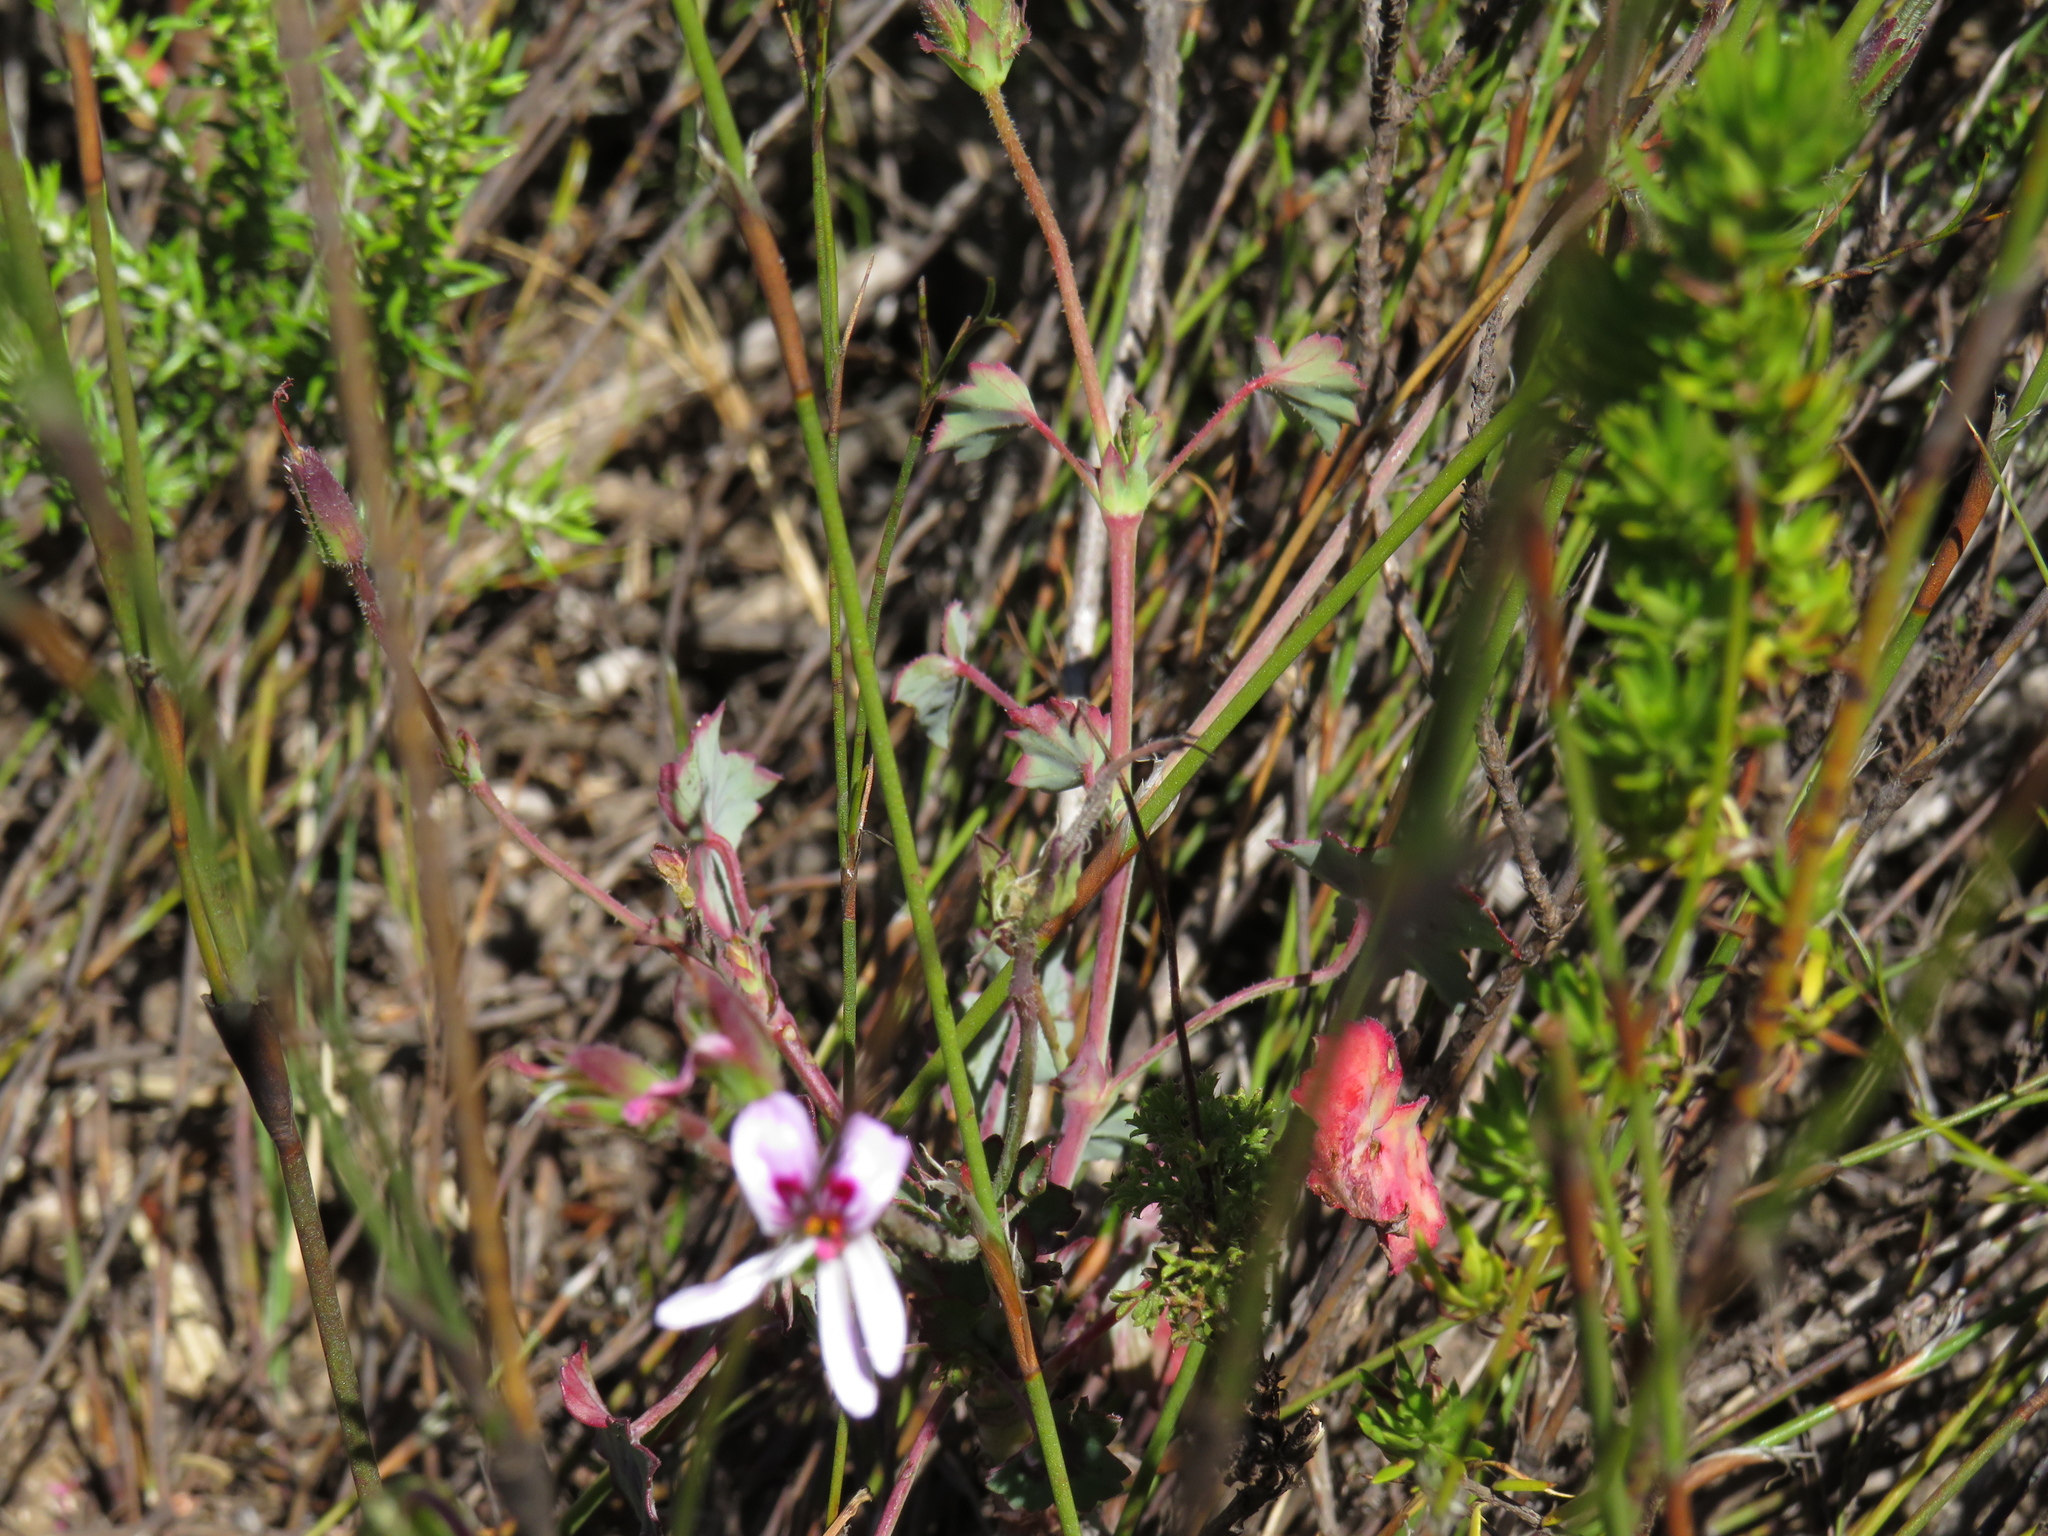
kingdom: Plantae
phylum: Tracheophyta
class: Magnoliopsida
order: Geraniales
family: Geraniaceae
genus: Pelargonium
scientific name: Pelargonium tabulare
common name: Table mountain pelargonium
